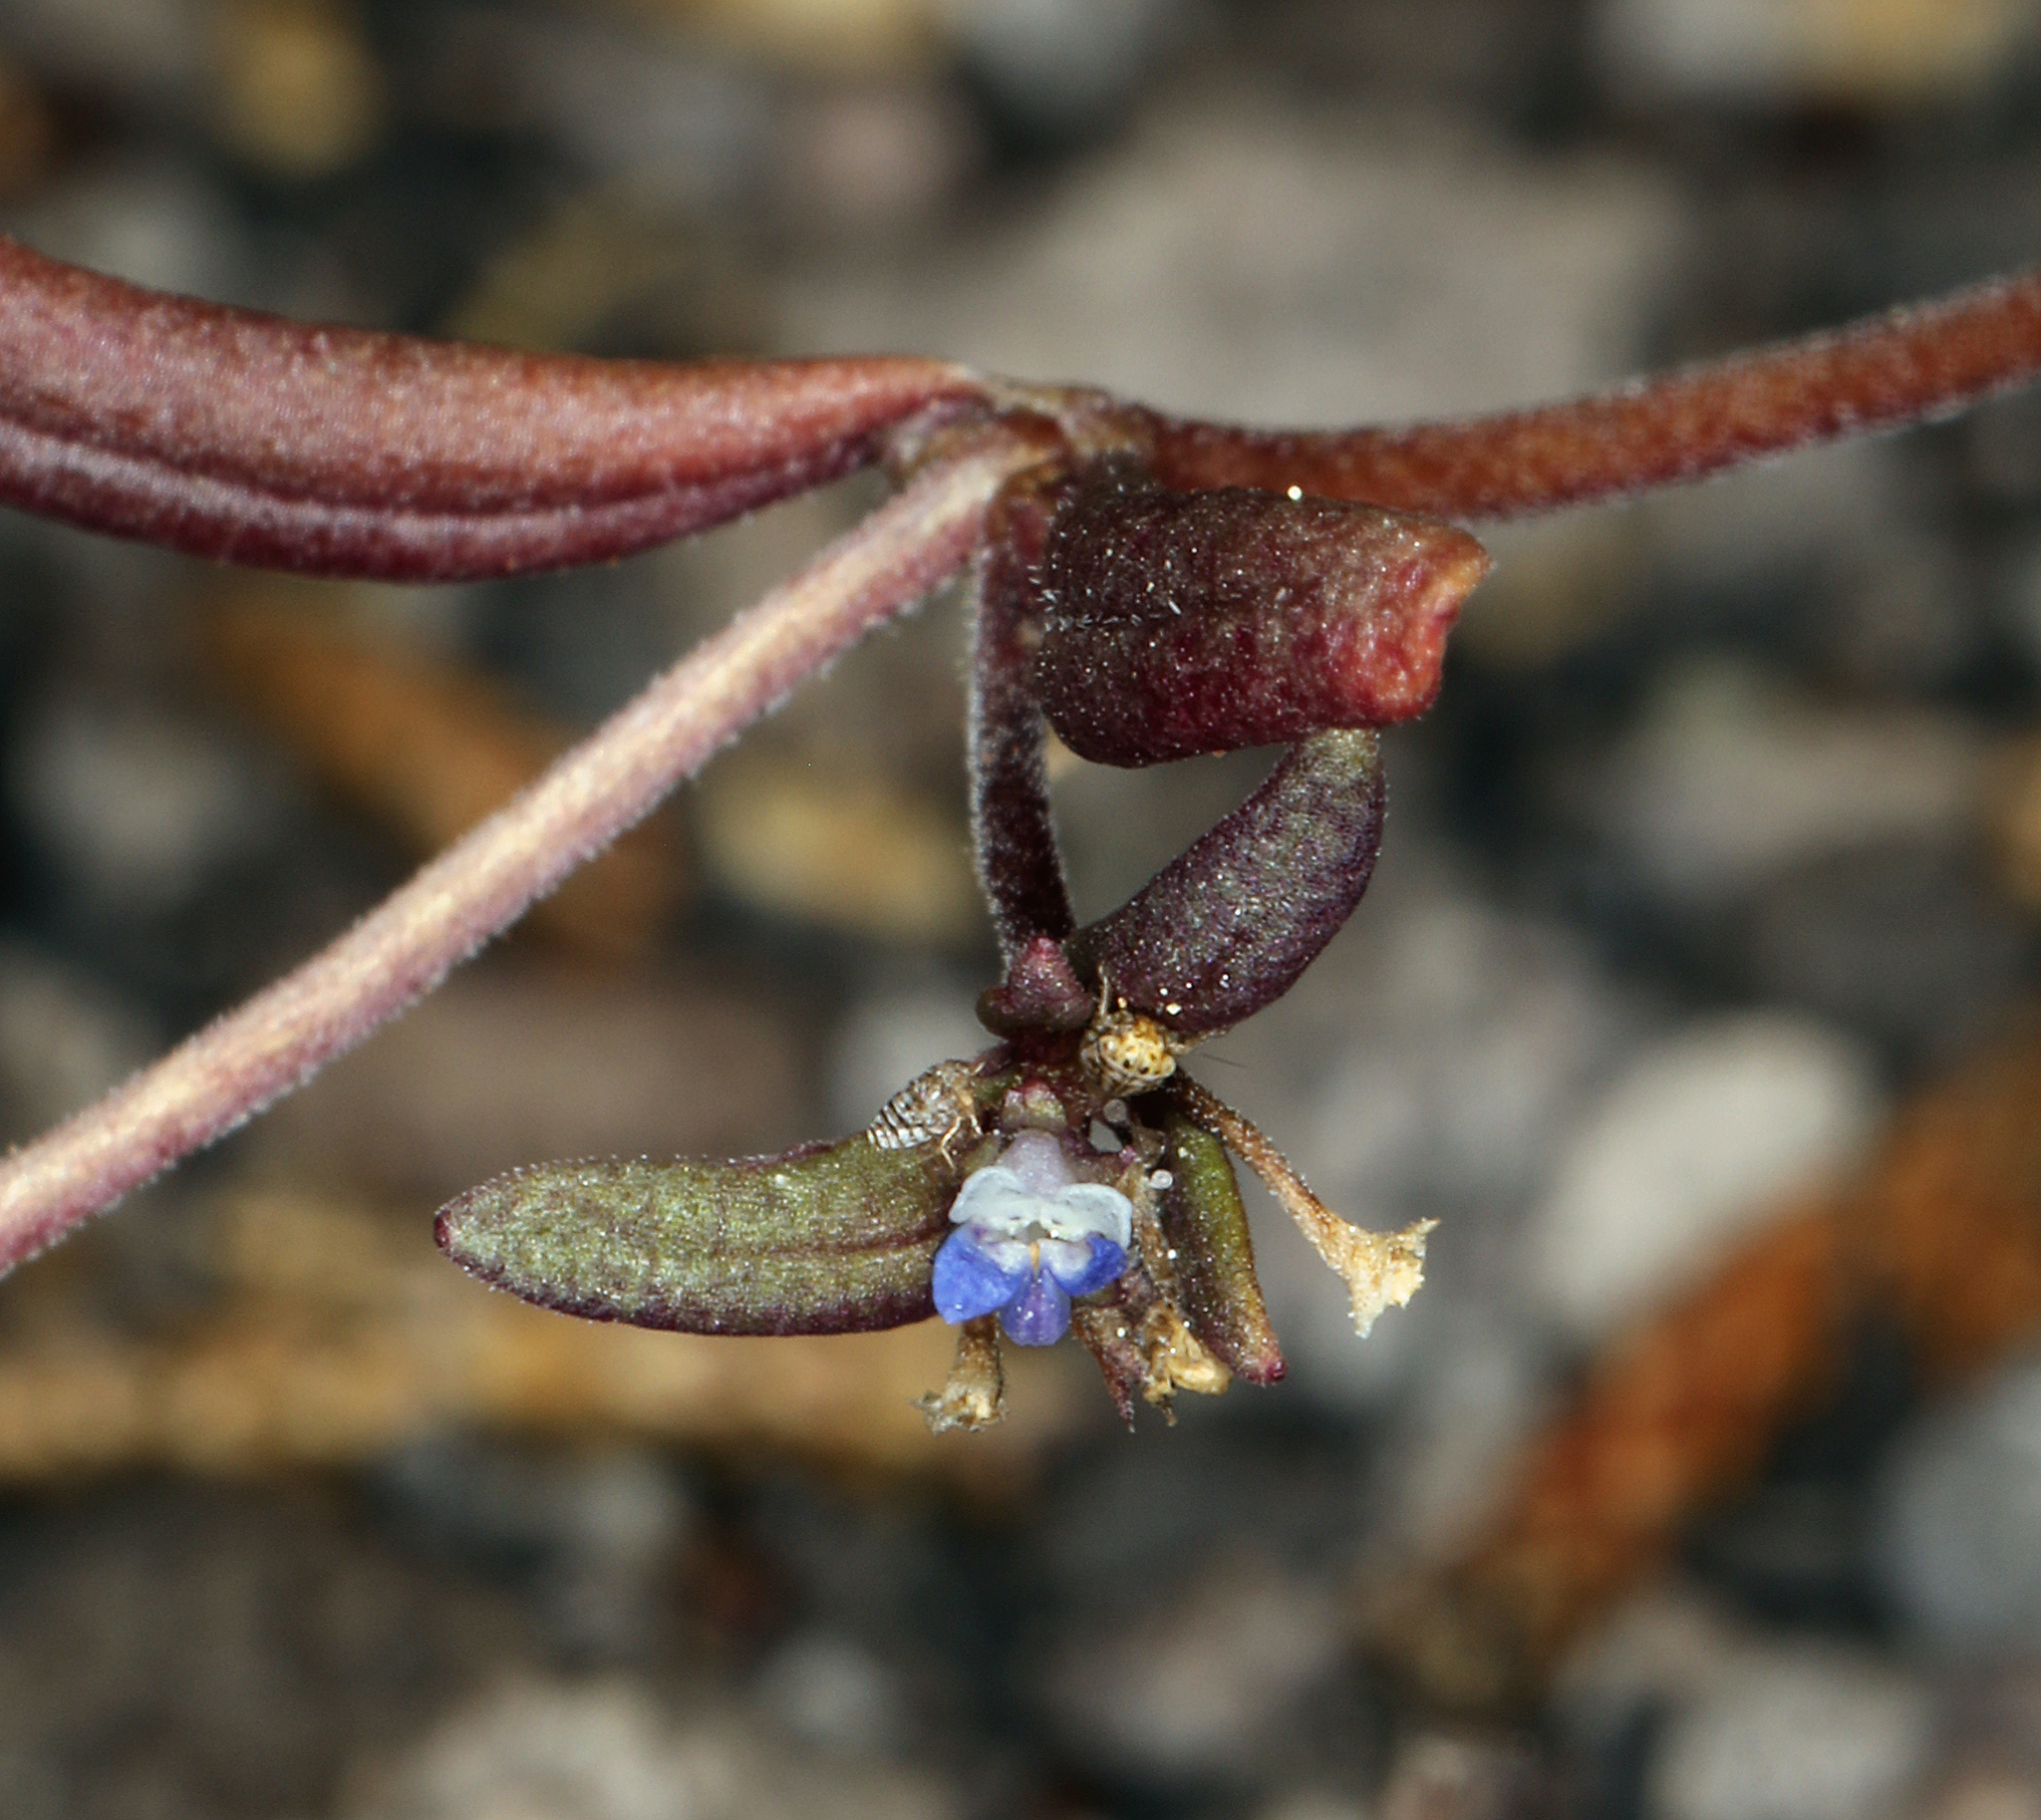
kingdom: Plantae
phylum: Tracheophyta
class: Magnoliopsida
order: Lamiales
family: Plantaginaceae
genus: Collinsia
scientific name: Collinsia parviflora
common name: Blue-lips
